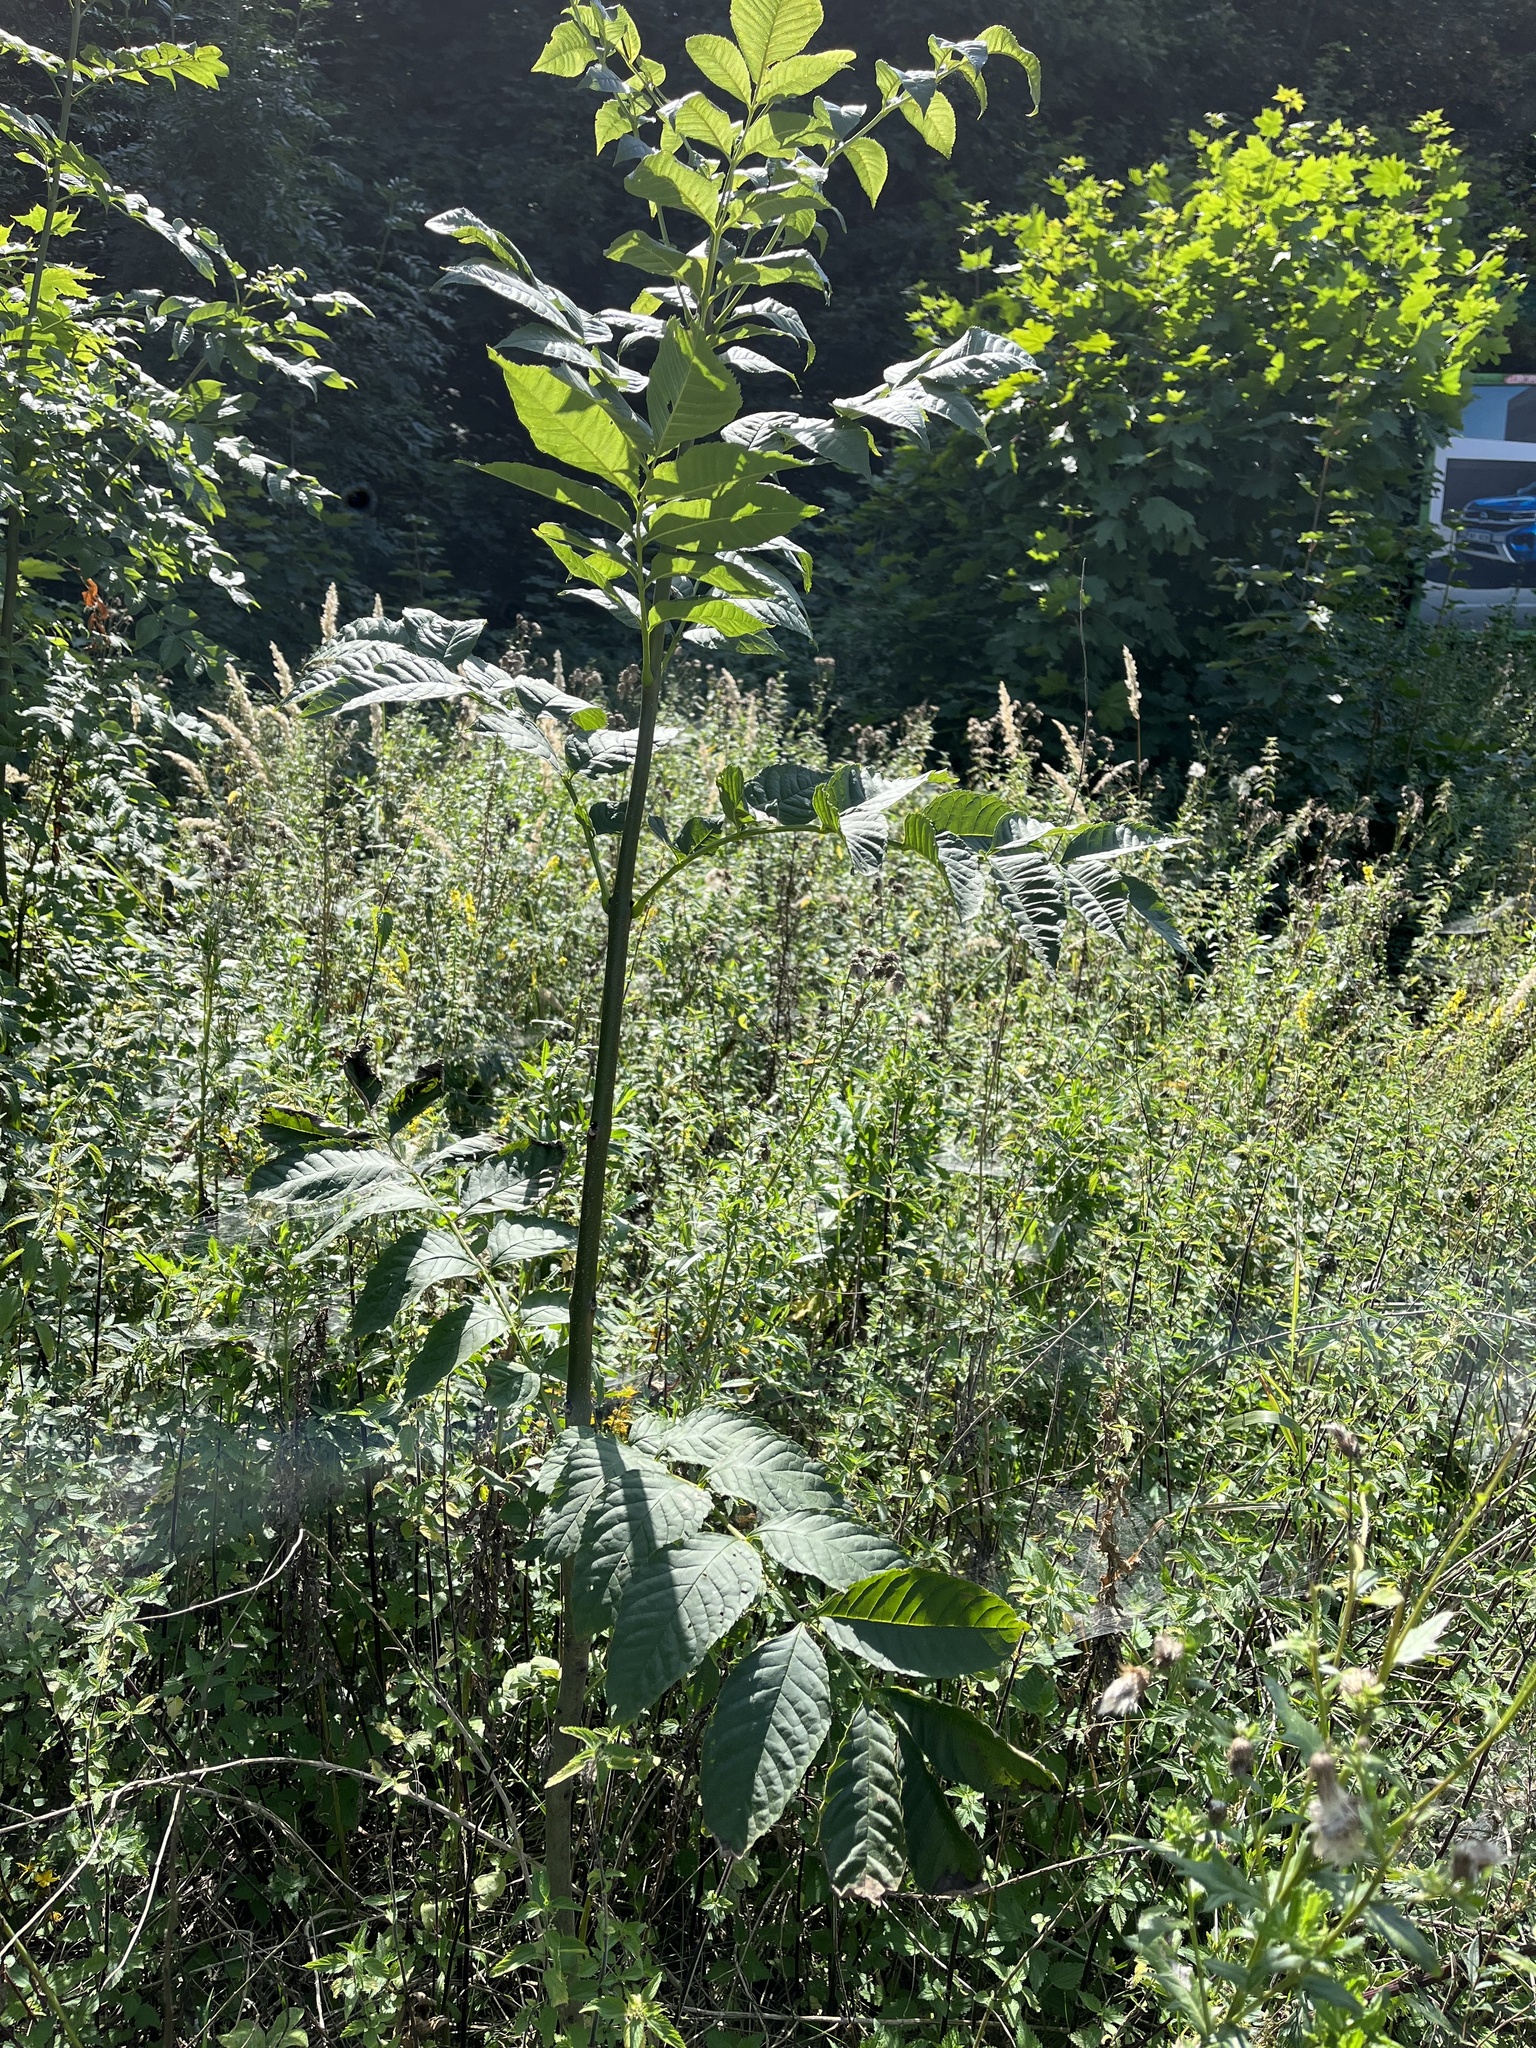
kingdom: Plantae
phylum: Tracheophyta
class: Magnoliopsida
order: Lamiales
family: Oleaceae
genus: Fraxinus
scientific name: Fraxinus excelsior
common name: European ash
